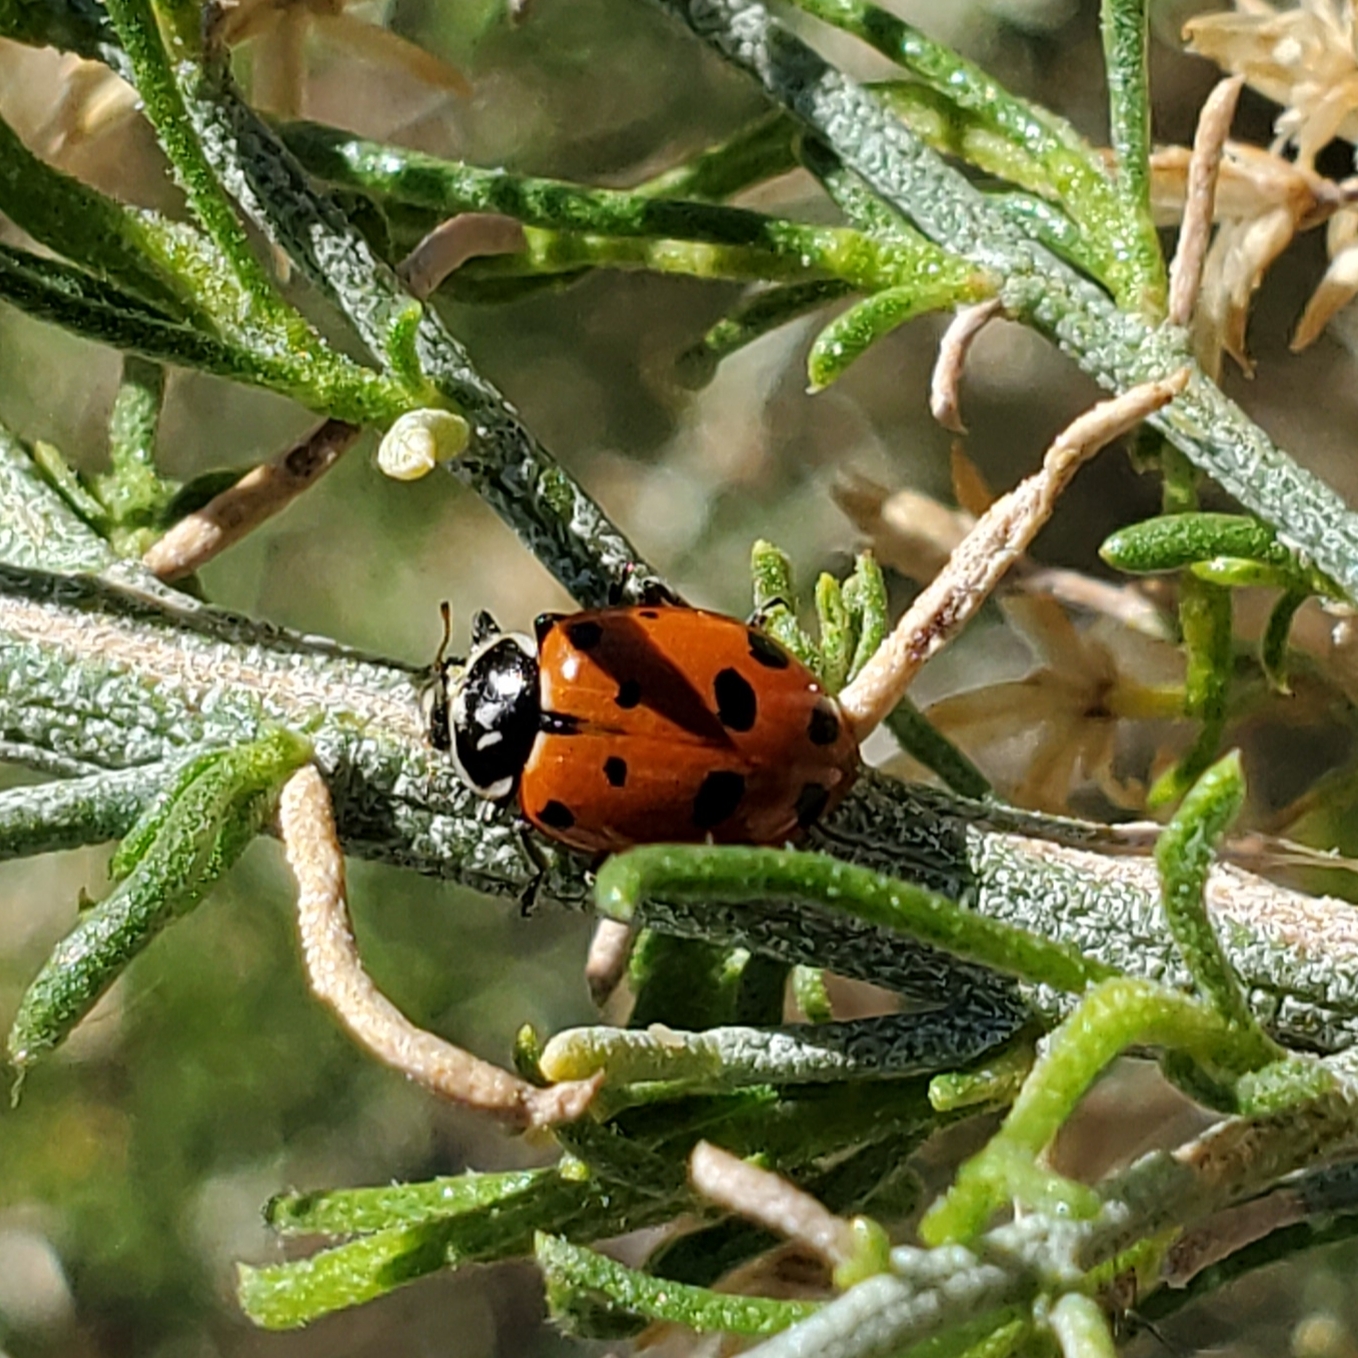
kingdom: Animalia
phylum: Arthropoda
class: Insecta
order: Coleoptera
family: Coccinellidae
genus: Hippodamia
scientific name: Hippodamia convergens
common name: Convergent lady beetle
